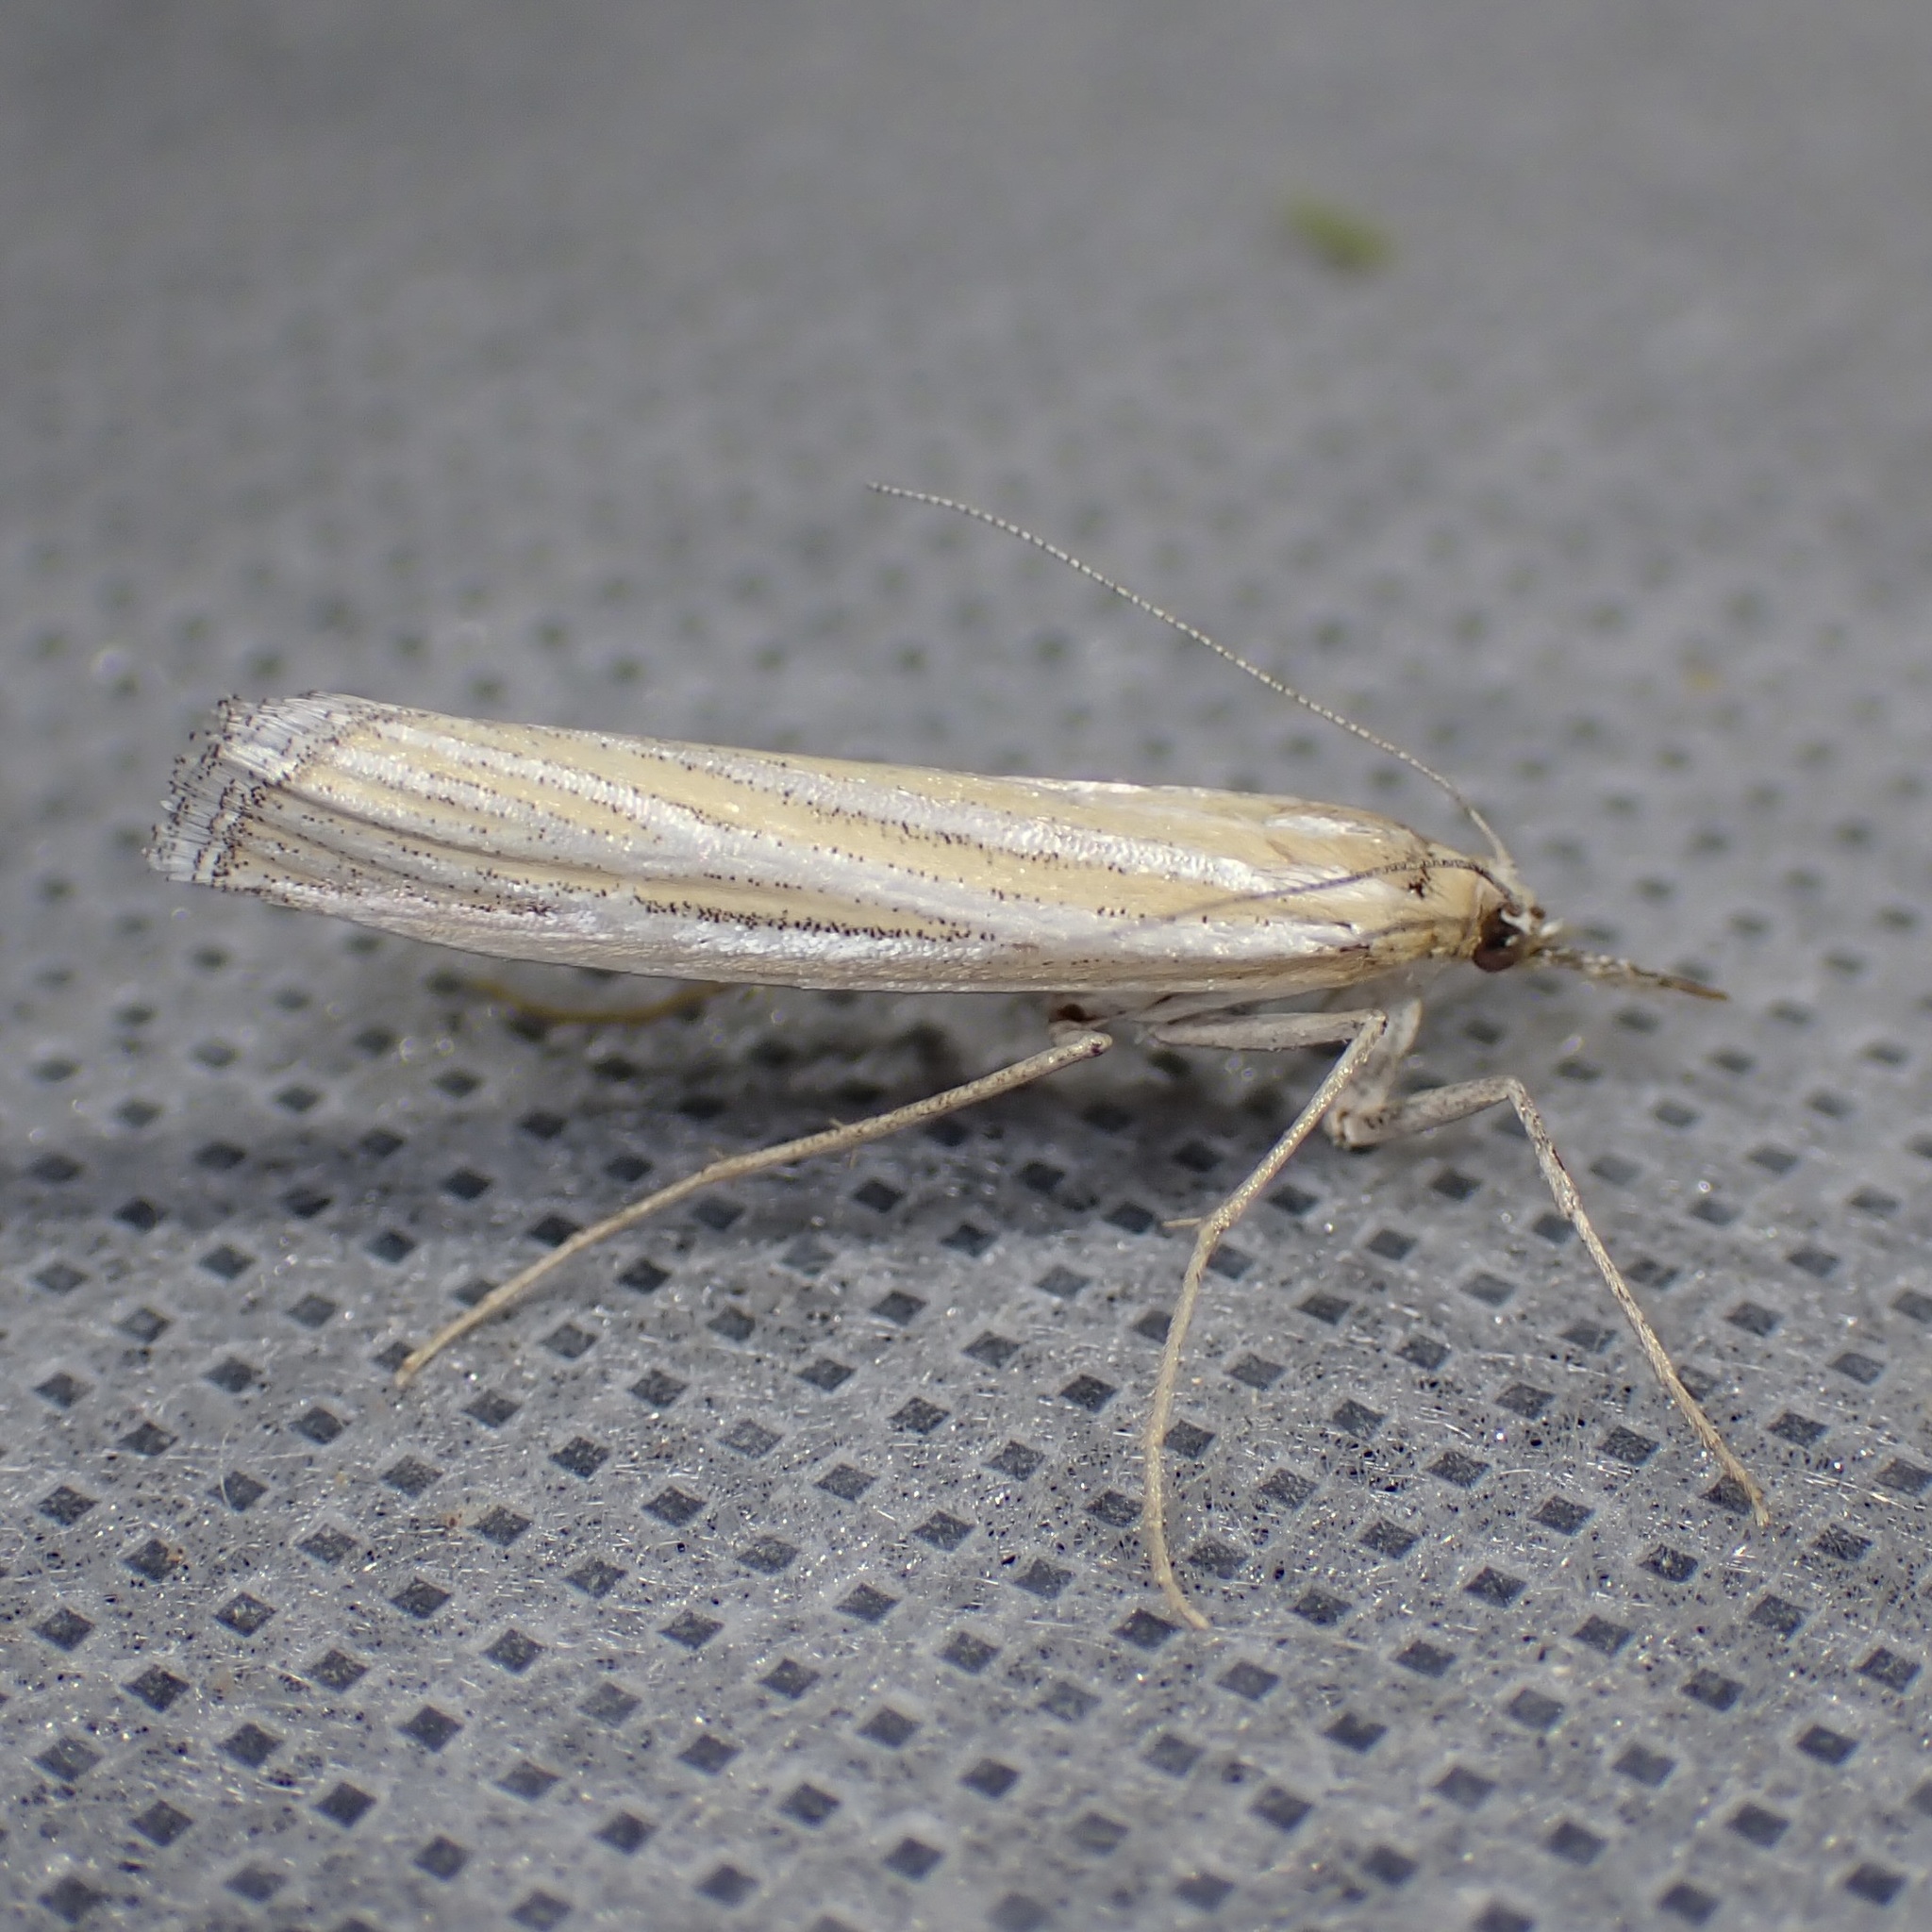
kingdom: Animalia
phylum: Arthropoda
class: Insecta
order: Lepidoptera
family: Crambidae
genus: Eufernaldia
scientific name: Eufernaldia cadarellus
